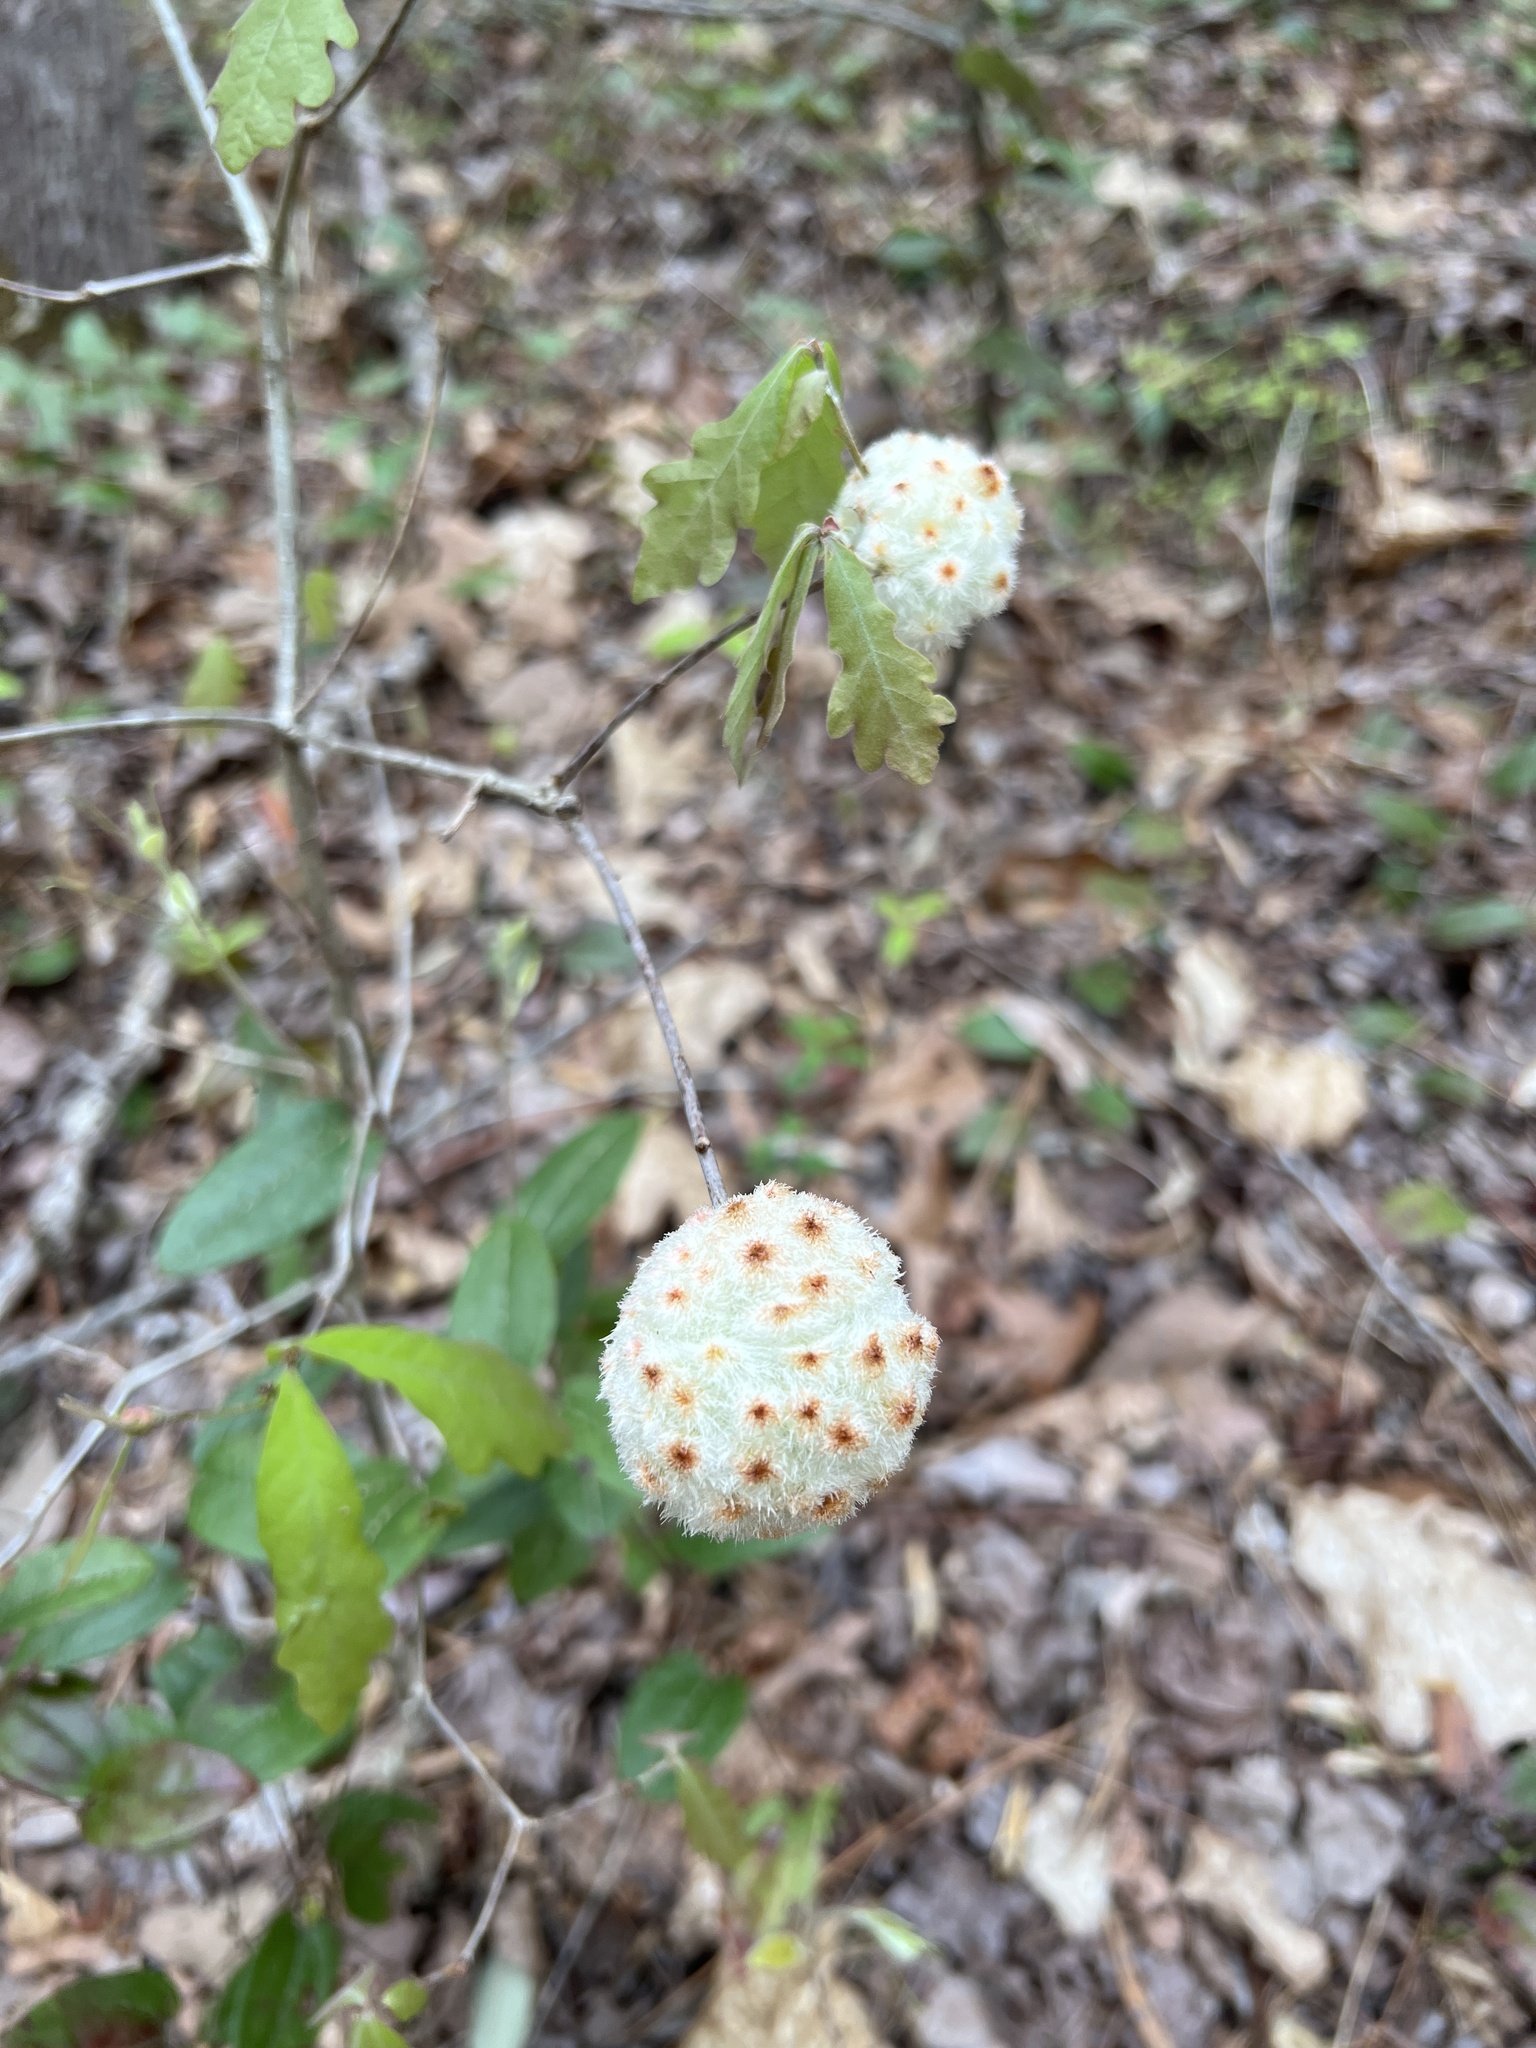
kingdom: Animalia
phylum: Arthropoda
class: Insecta
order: Hymenoptera
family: Cynipidae
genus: Callirhytis
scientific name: Callirhytis
